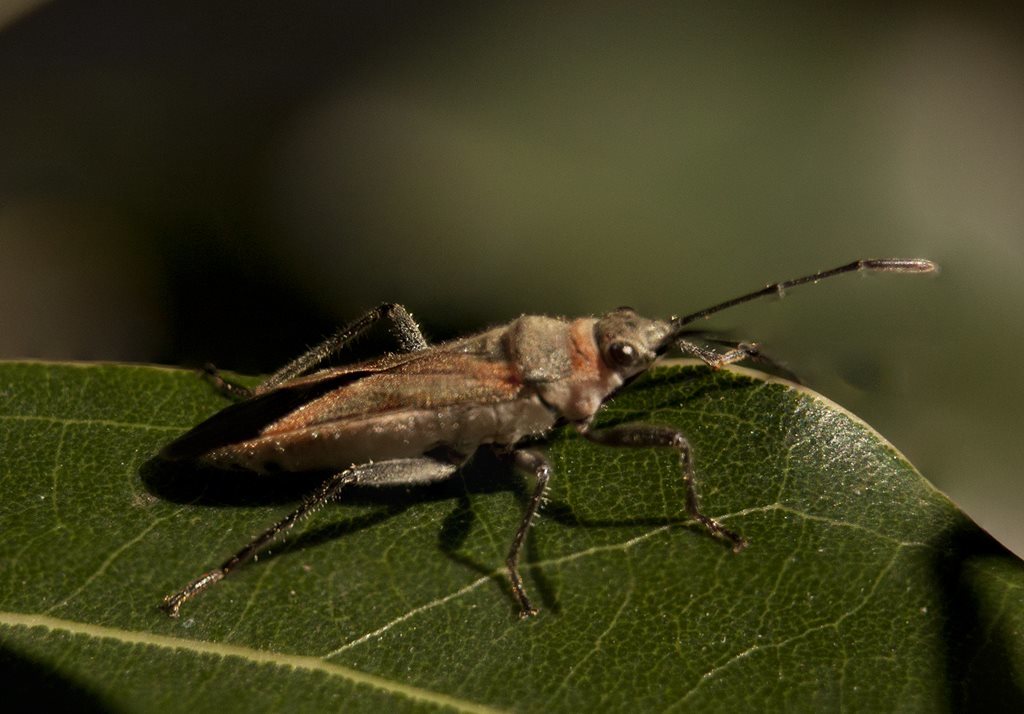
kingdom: Animalia
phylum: Arthropoda
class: Insecta
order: Hemiptera
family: Lygaeidae
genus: Arocatus
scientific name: Arocatus rusticus
